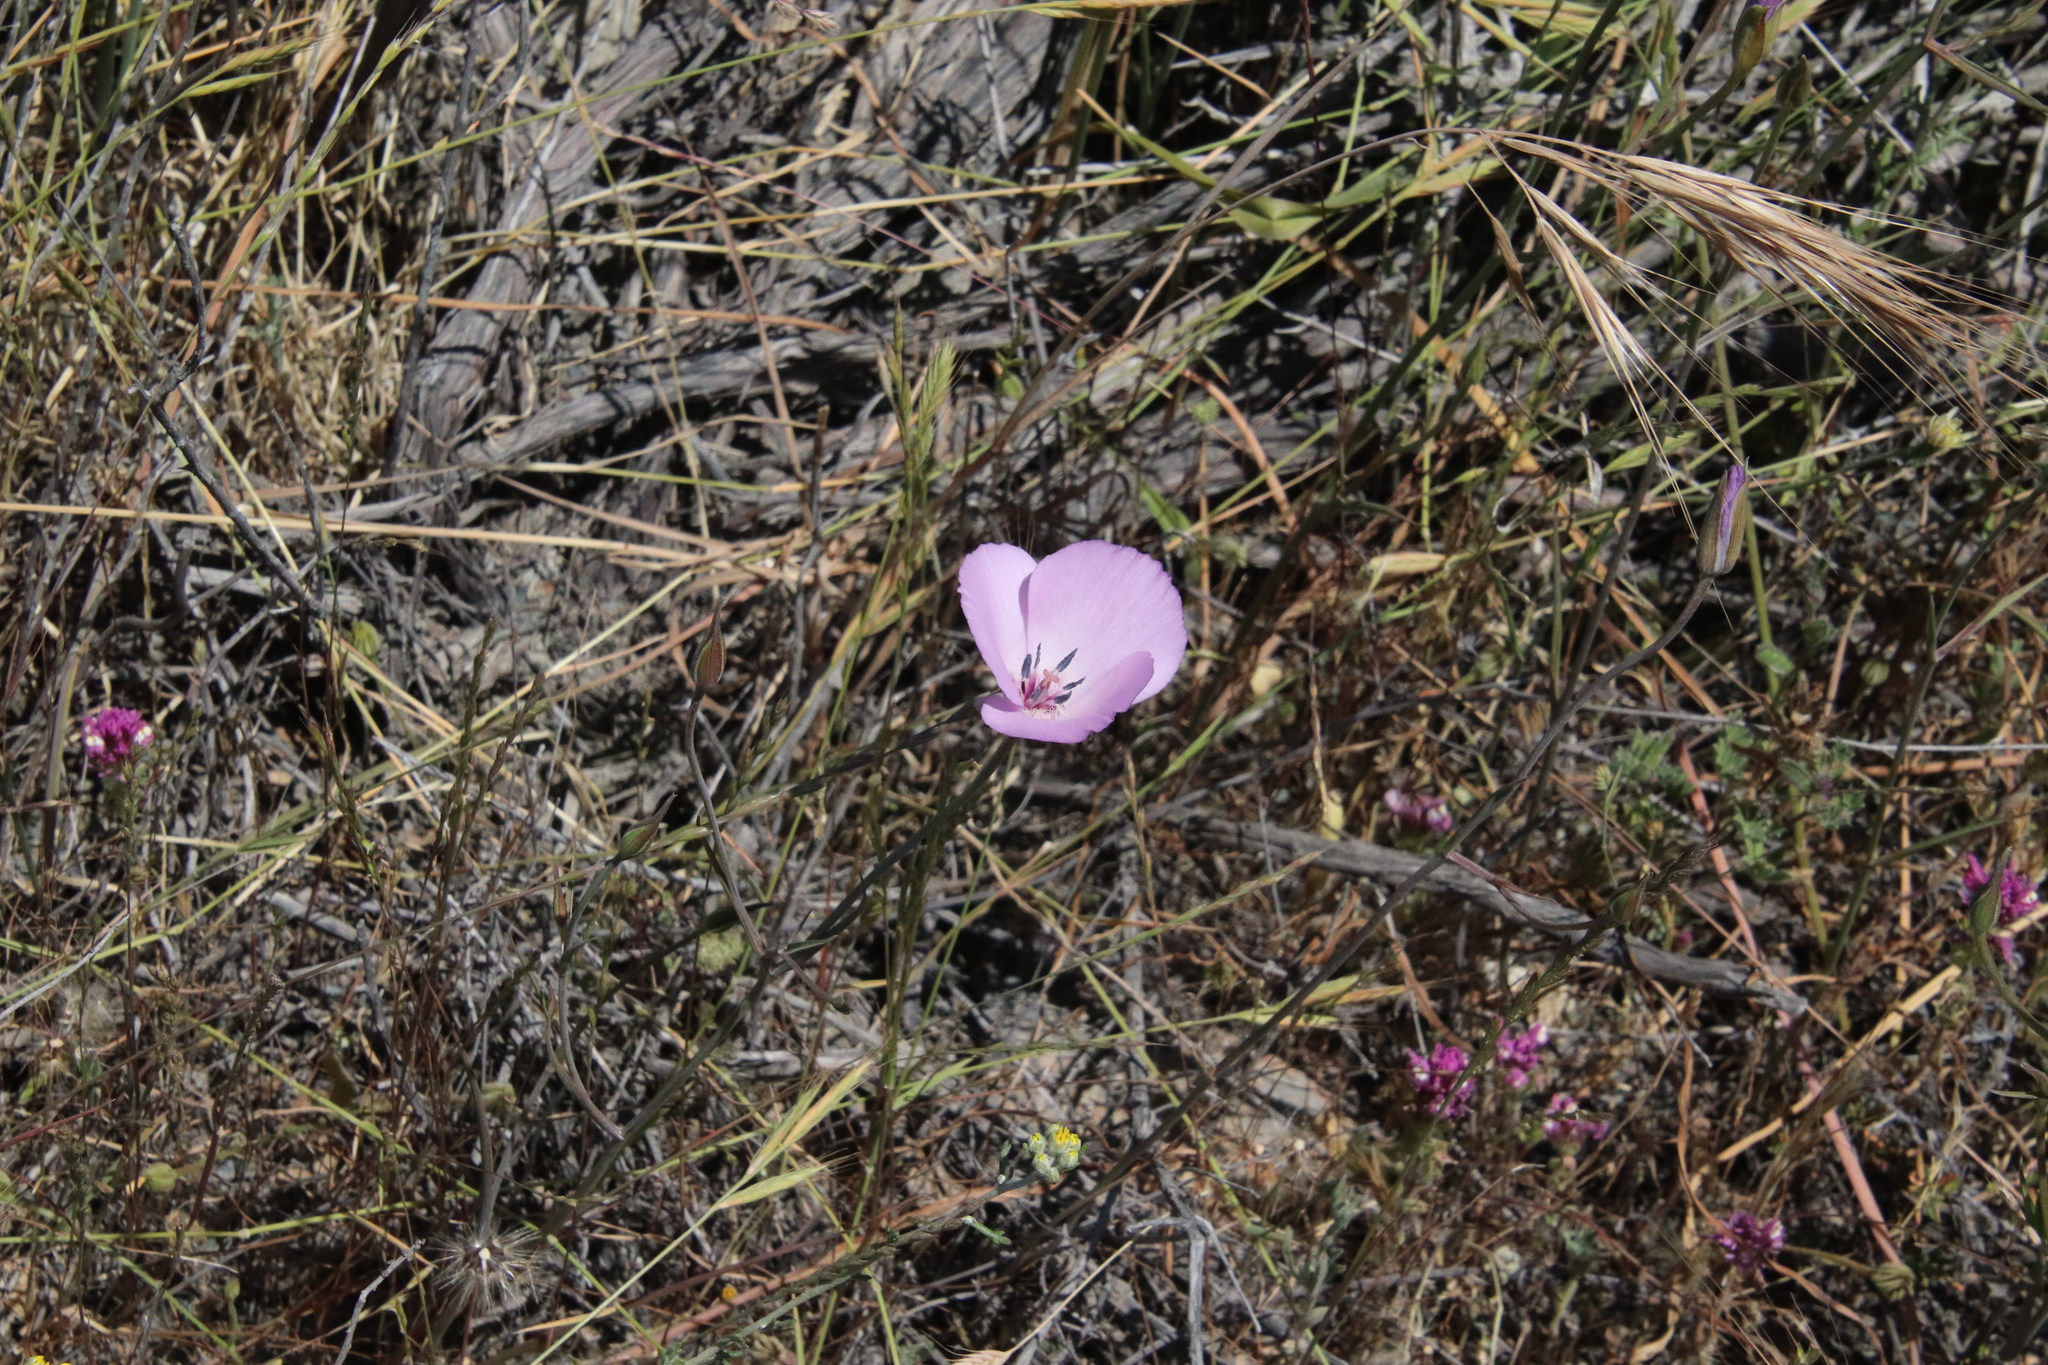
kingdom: Plantae
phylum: Tracheophyta
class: Liliopsida
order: Liliales
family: Liliaceae
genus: Calochortus
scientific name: Calochortus splendens
